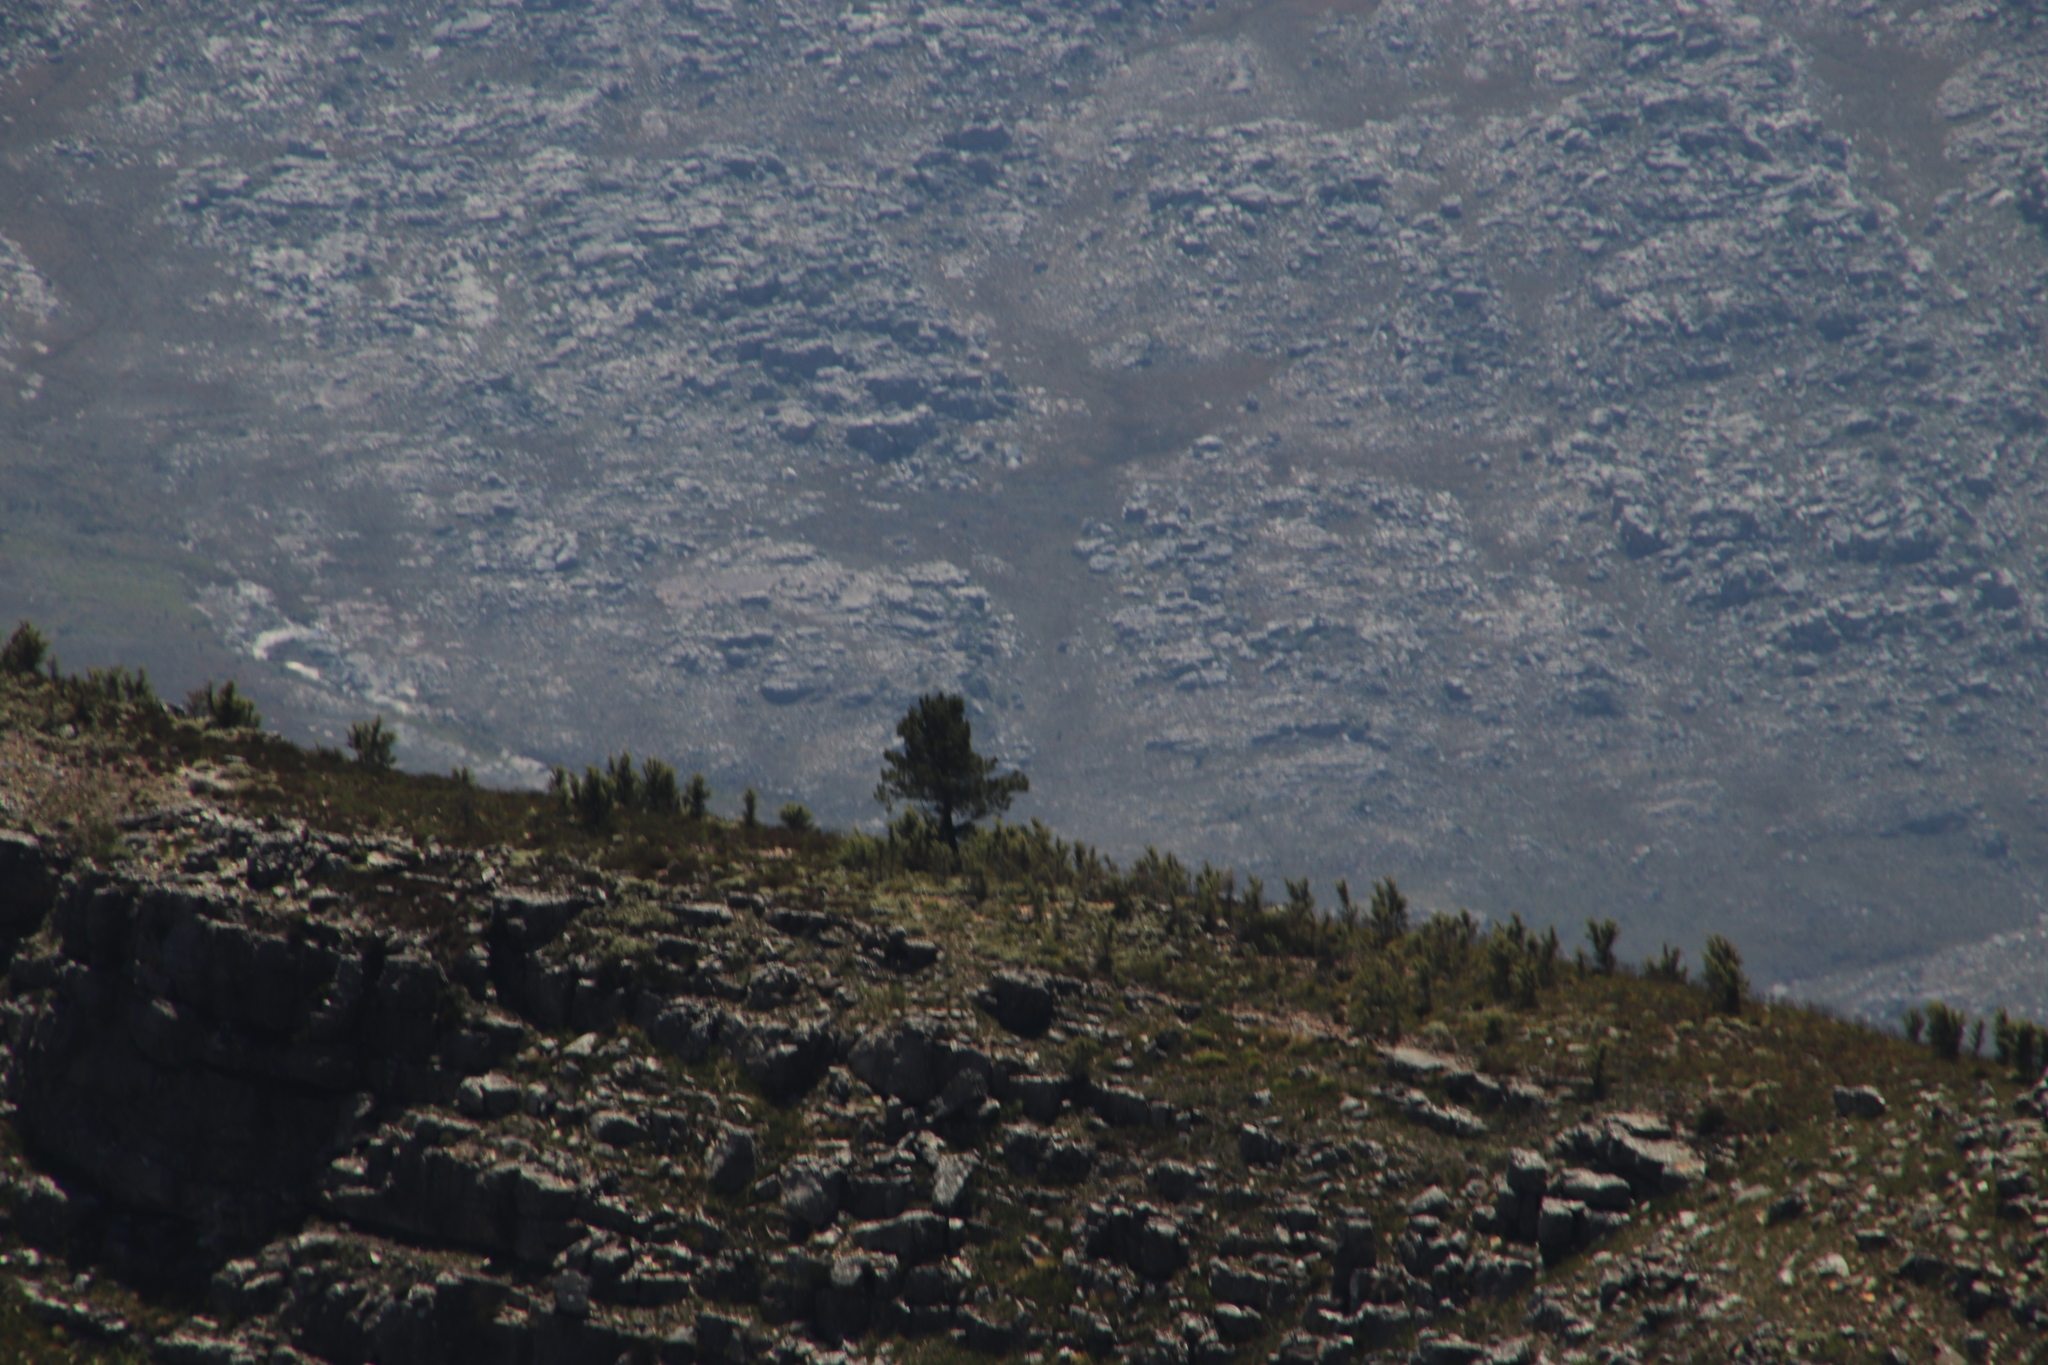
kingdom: Plantae
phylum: Tracheophyta
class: Magnoliopsida
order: Proteales
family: Proteaceae
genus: Hakea
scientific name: Hakea sericea
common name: Needle bush
